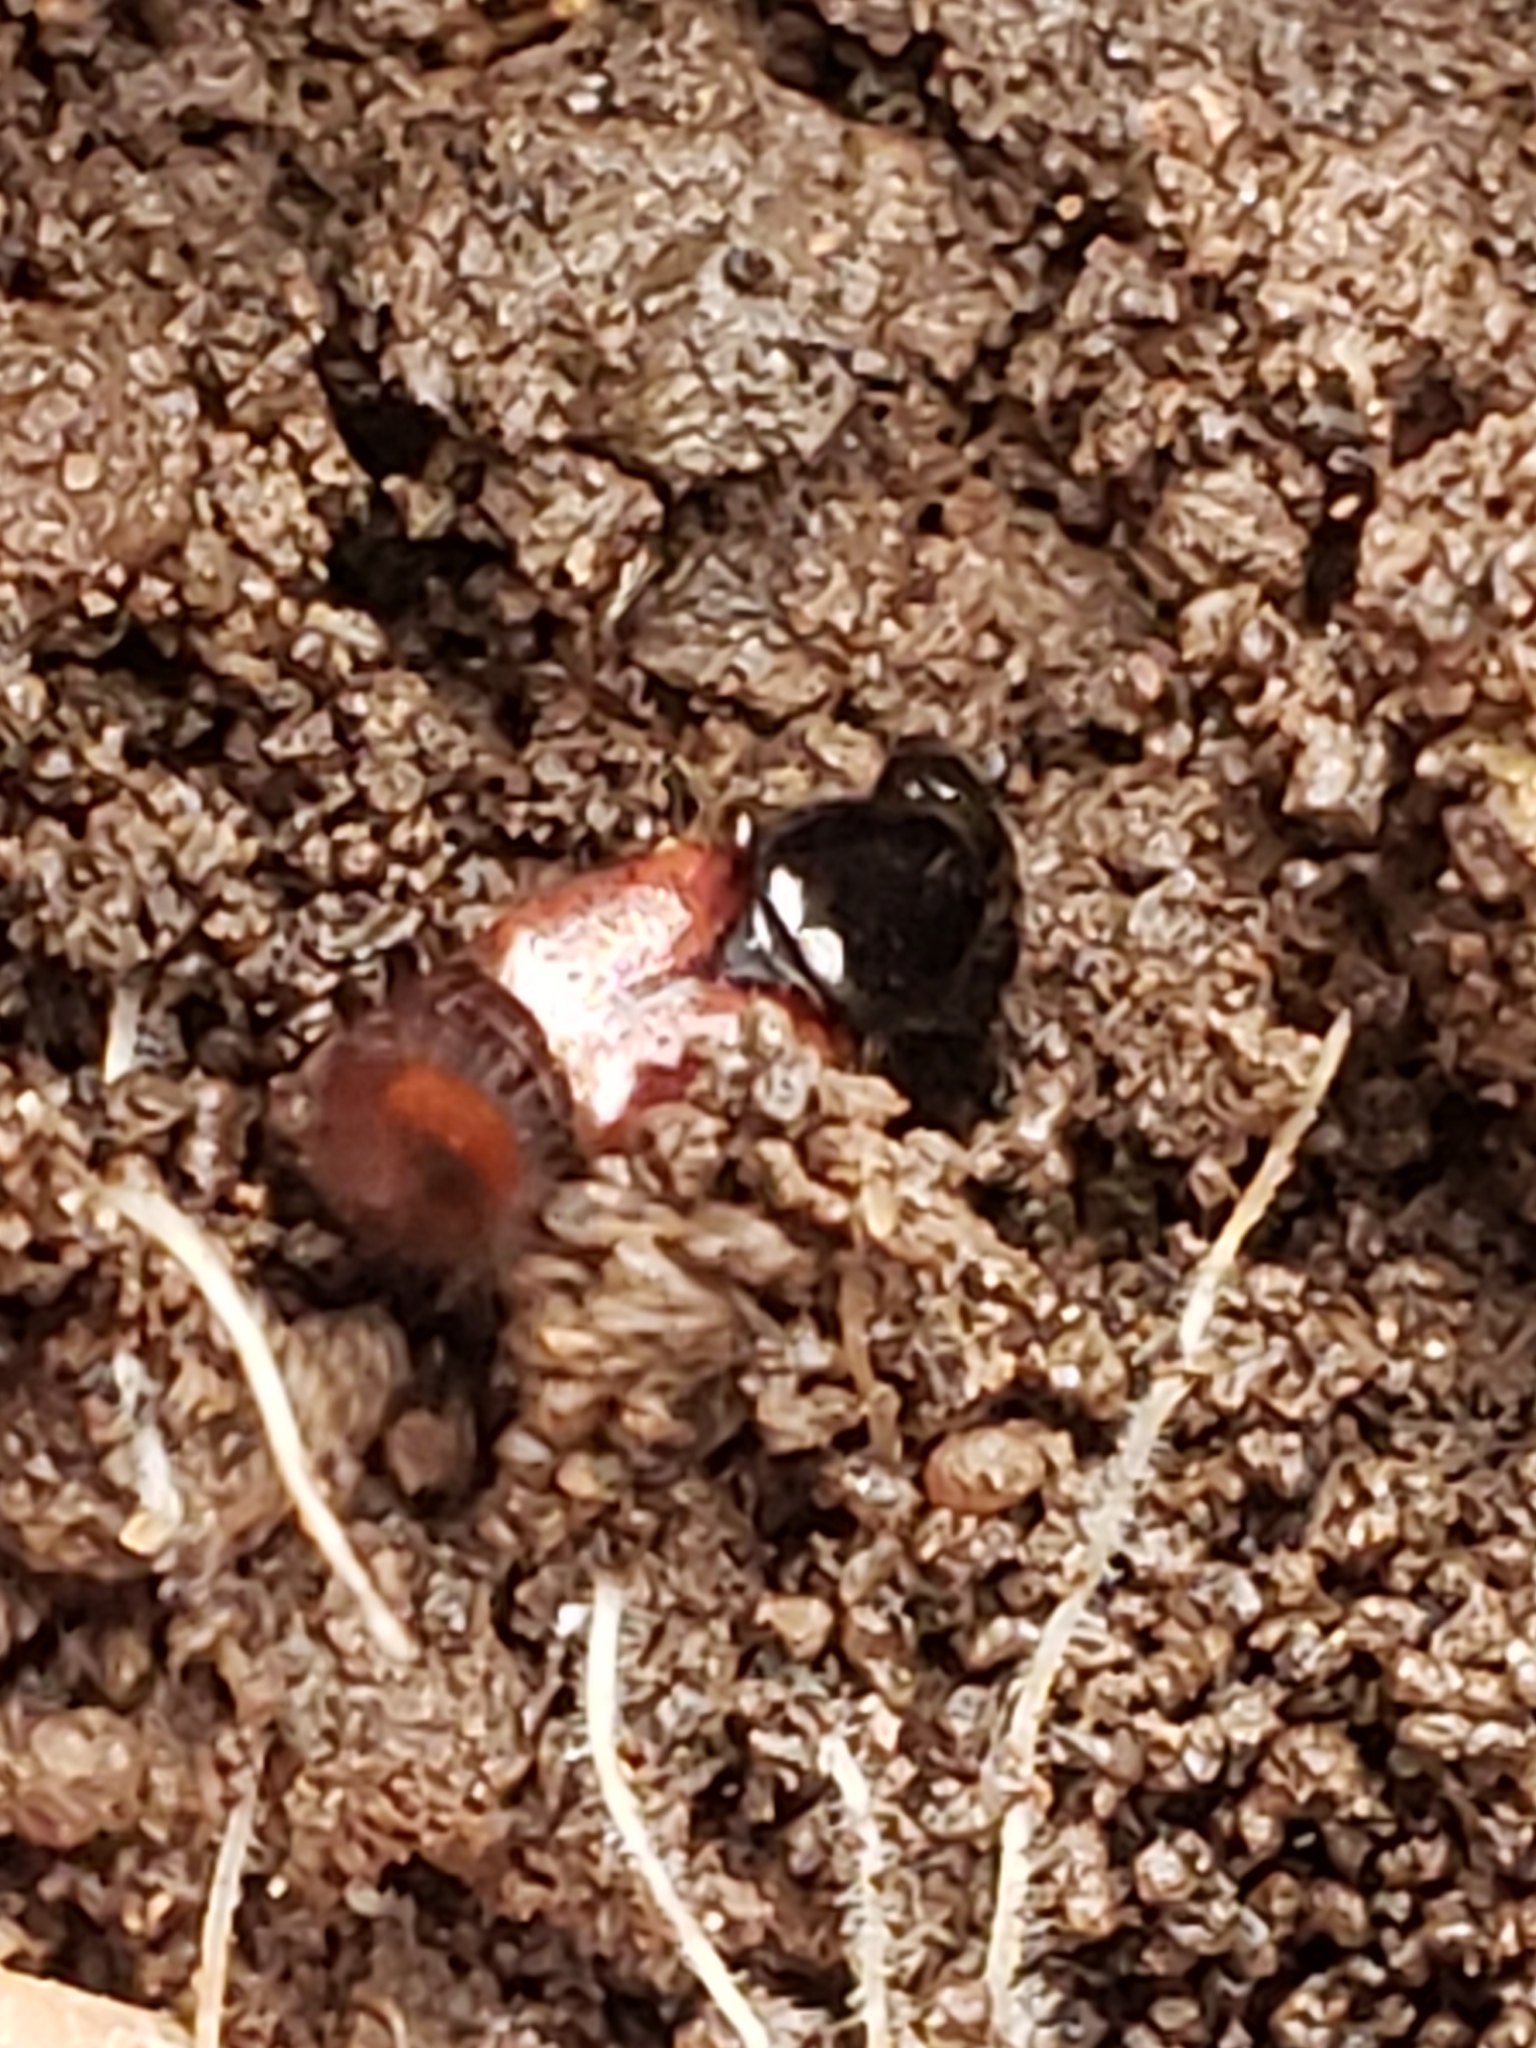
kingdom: Animalia
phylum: Arthropoda
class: Insecta
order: Coleoptera
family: Staphylinidae
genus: Hesperus
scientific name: Hesperus baltimorensis
